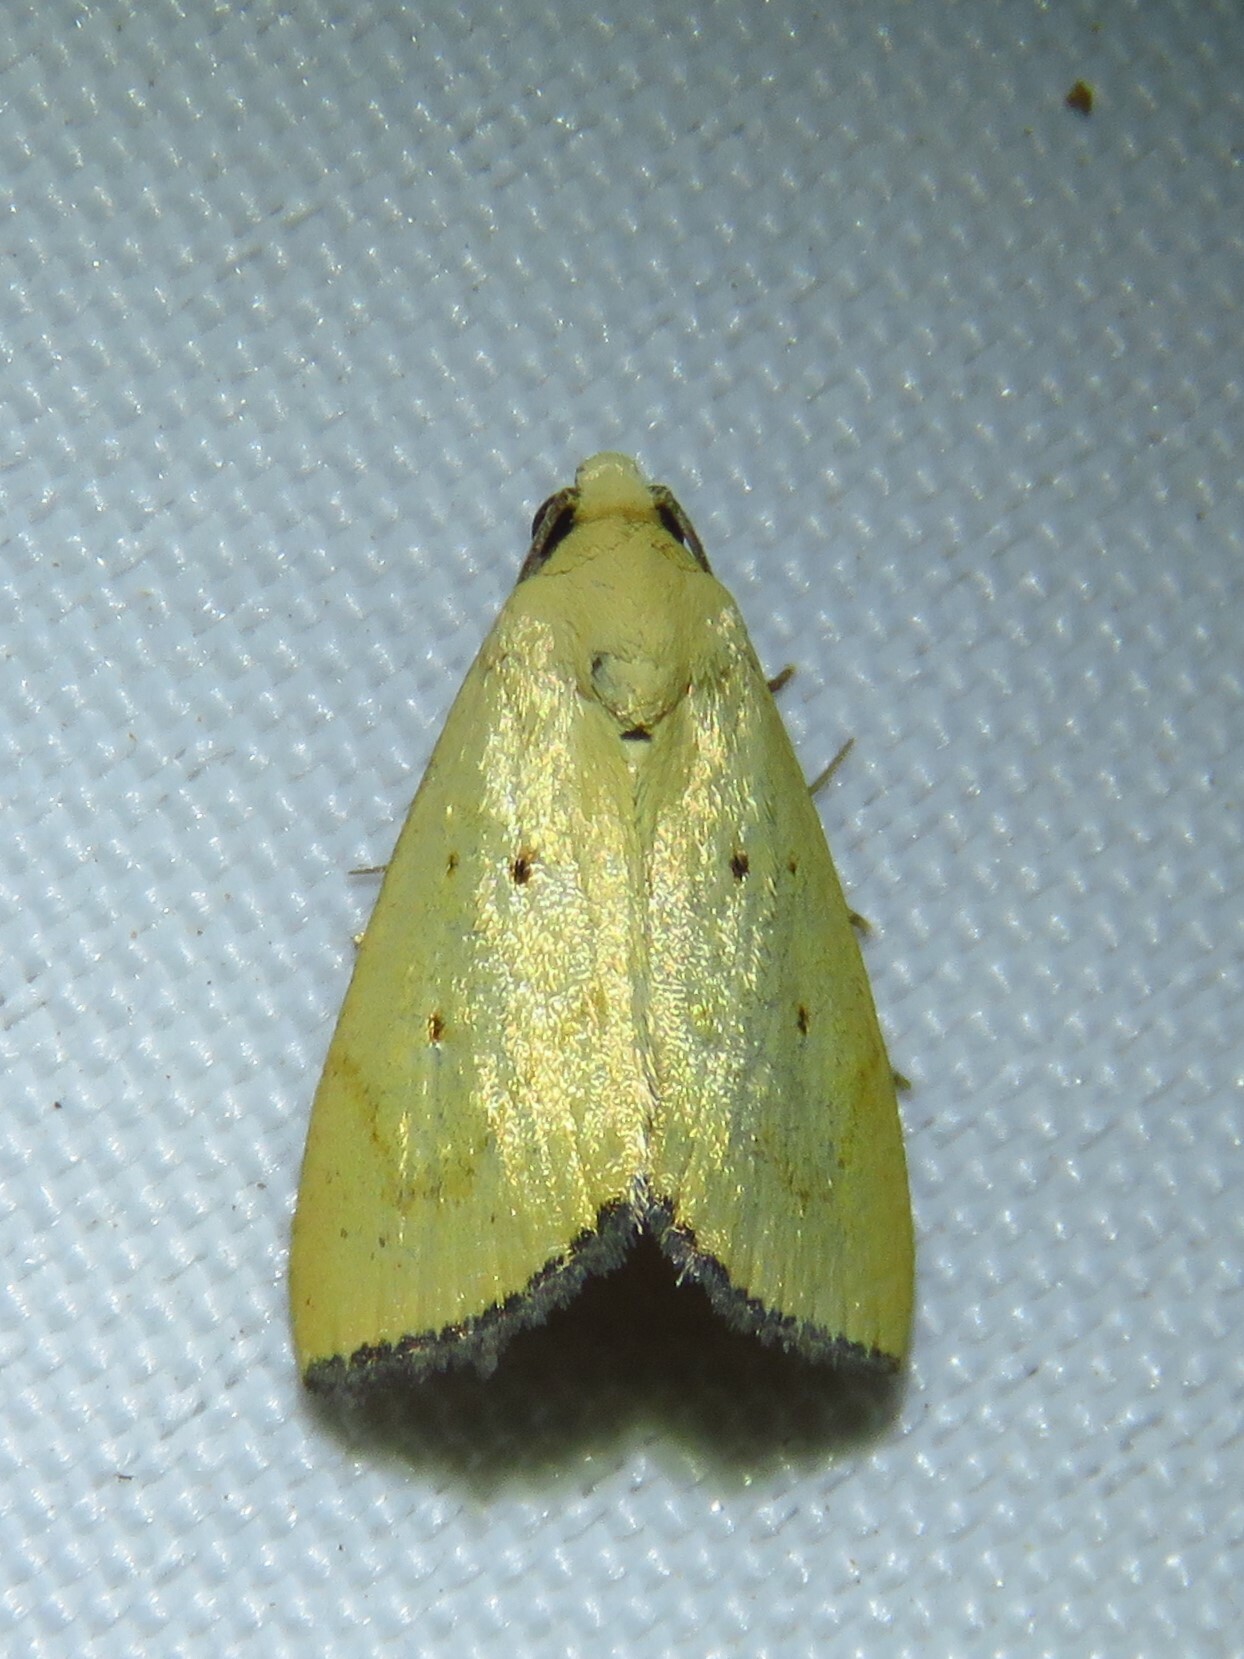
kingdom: Animalia
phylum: Arthropoda
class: Insecta
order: Lepidoptera
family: Noctuidae
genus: Marimatha
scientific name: Marimatha nigrofimbria
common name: Black-bordered lemon moth
